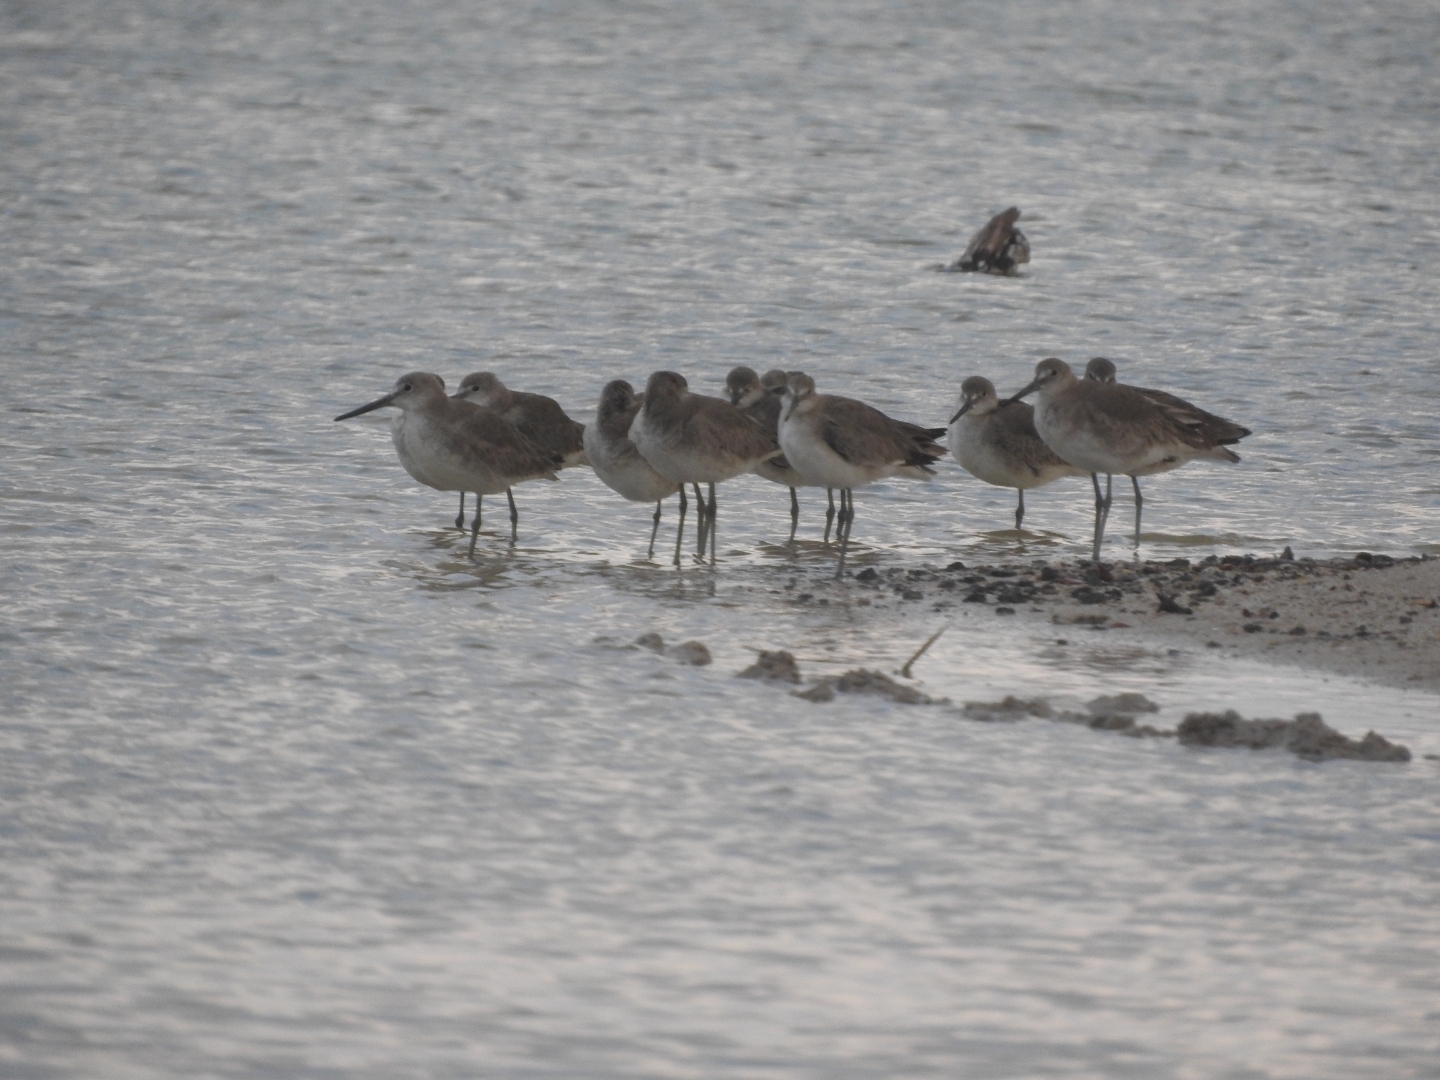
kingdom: Animalia
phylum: Chordata
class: Aves
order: Charadriiformes
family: Scolopacidae
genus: Tringa
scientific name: Tringa semipalmata
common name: Willet
